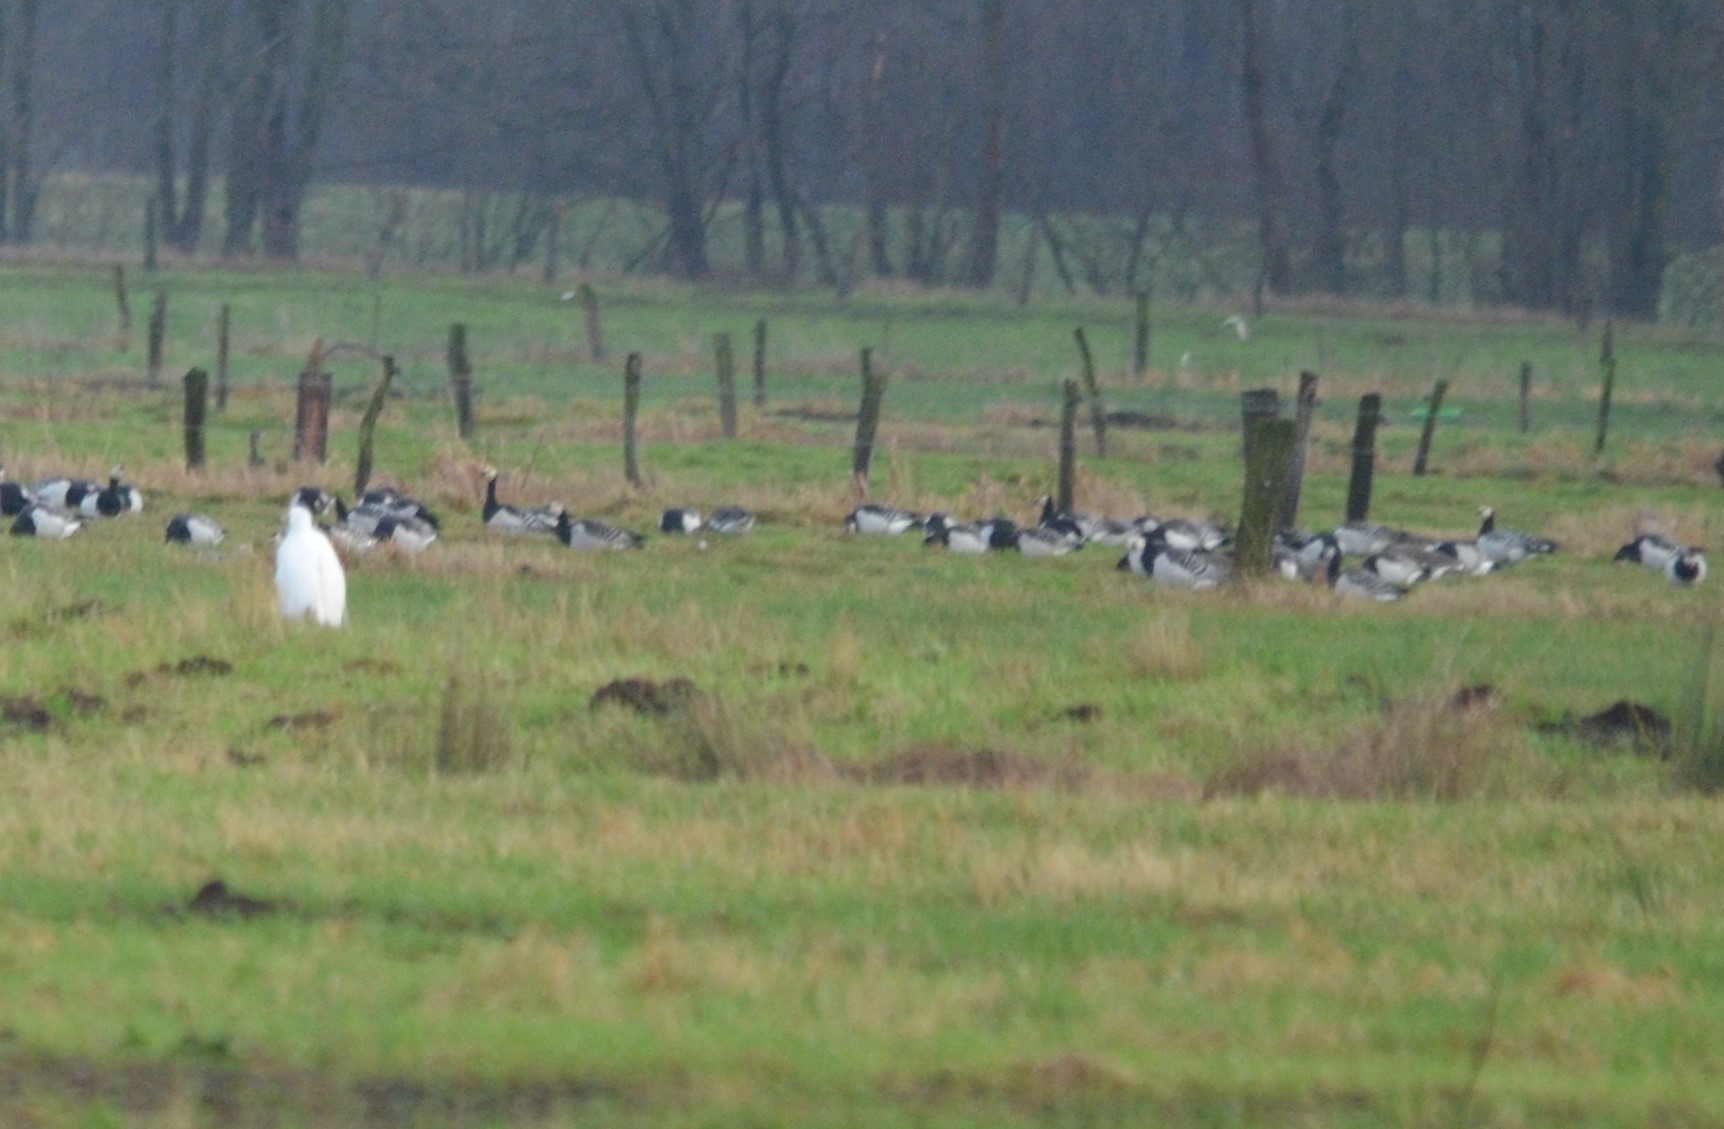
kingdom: Animalia
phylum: Chordata
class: Aves
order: Anseriformes
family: Anatidae
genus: Branta
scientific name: Branta leucopsis
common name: Barnacle goose
